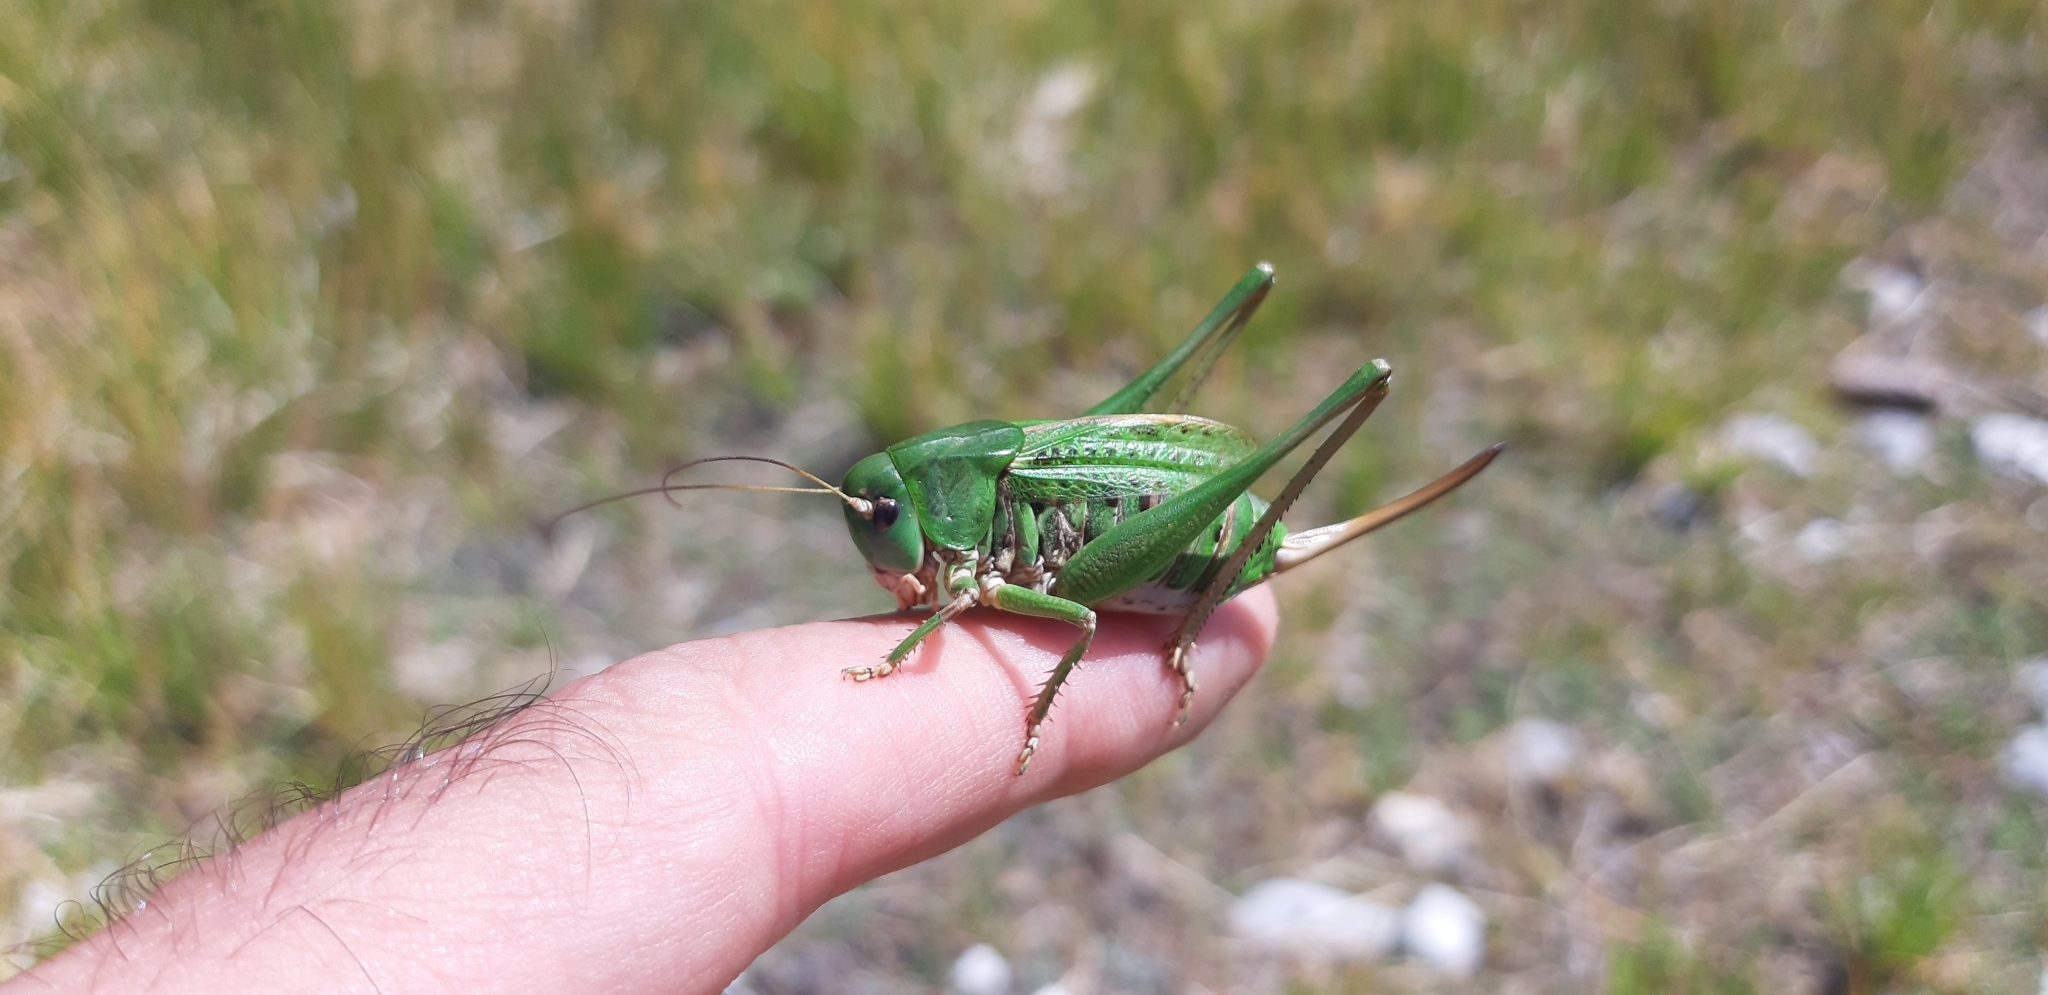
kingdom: Animalia
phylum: Arthropoda
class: Insecta
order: Orthoptera
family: Tettigoniidae
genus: Decticus
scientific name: Decticus aprutianus
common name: Abruzzo wart-biter
